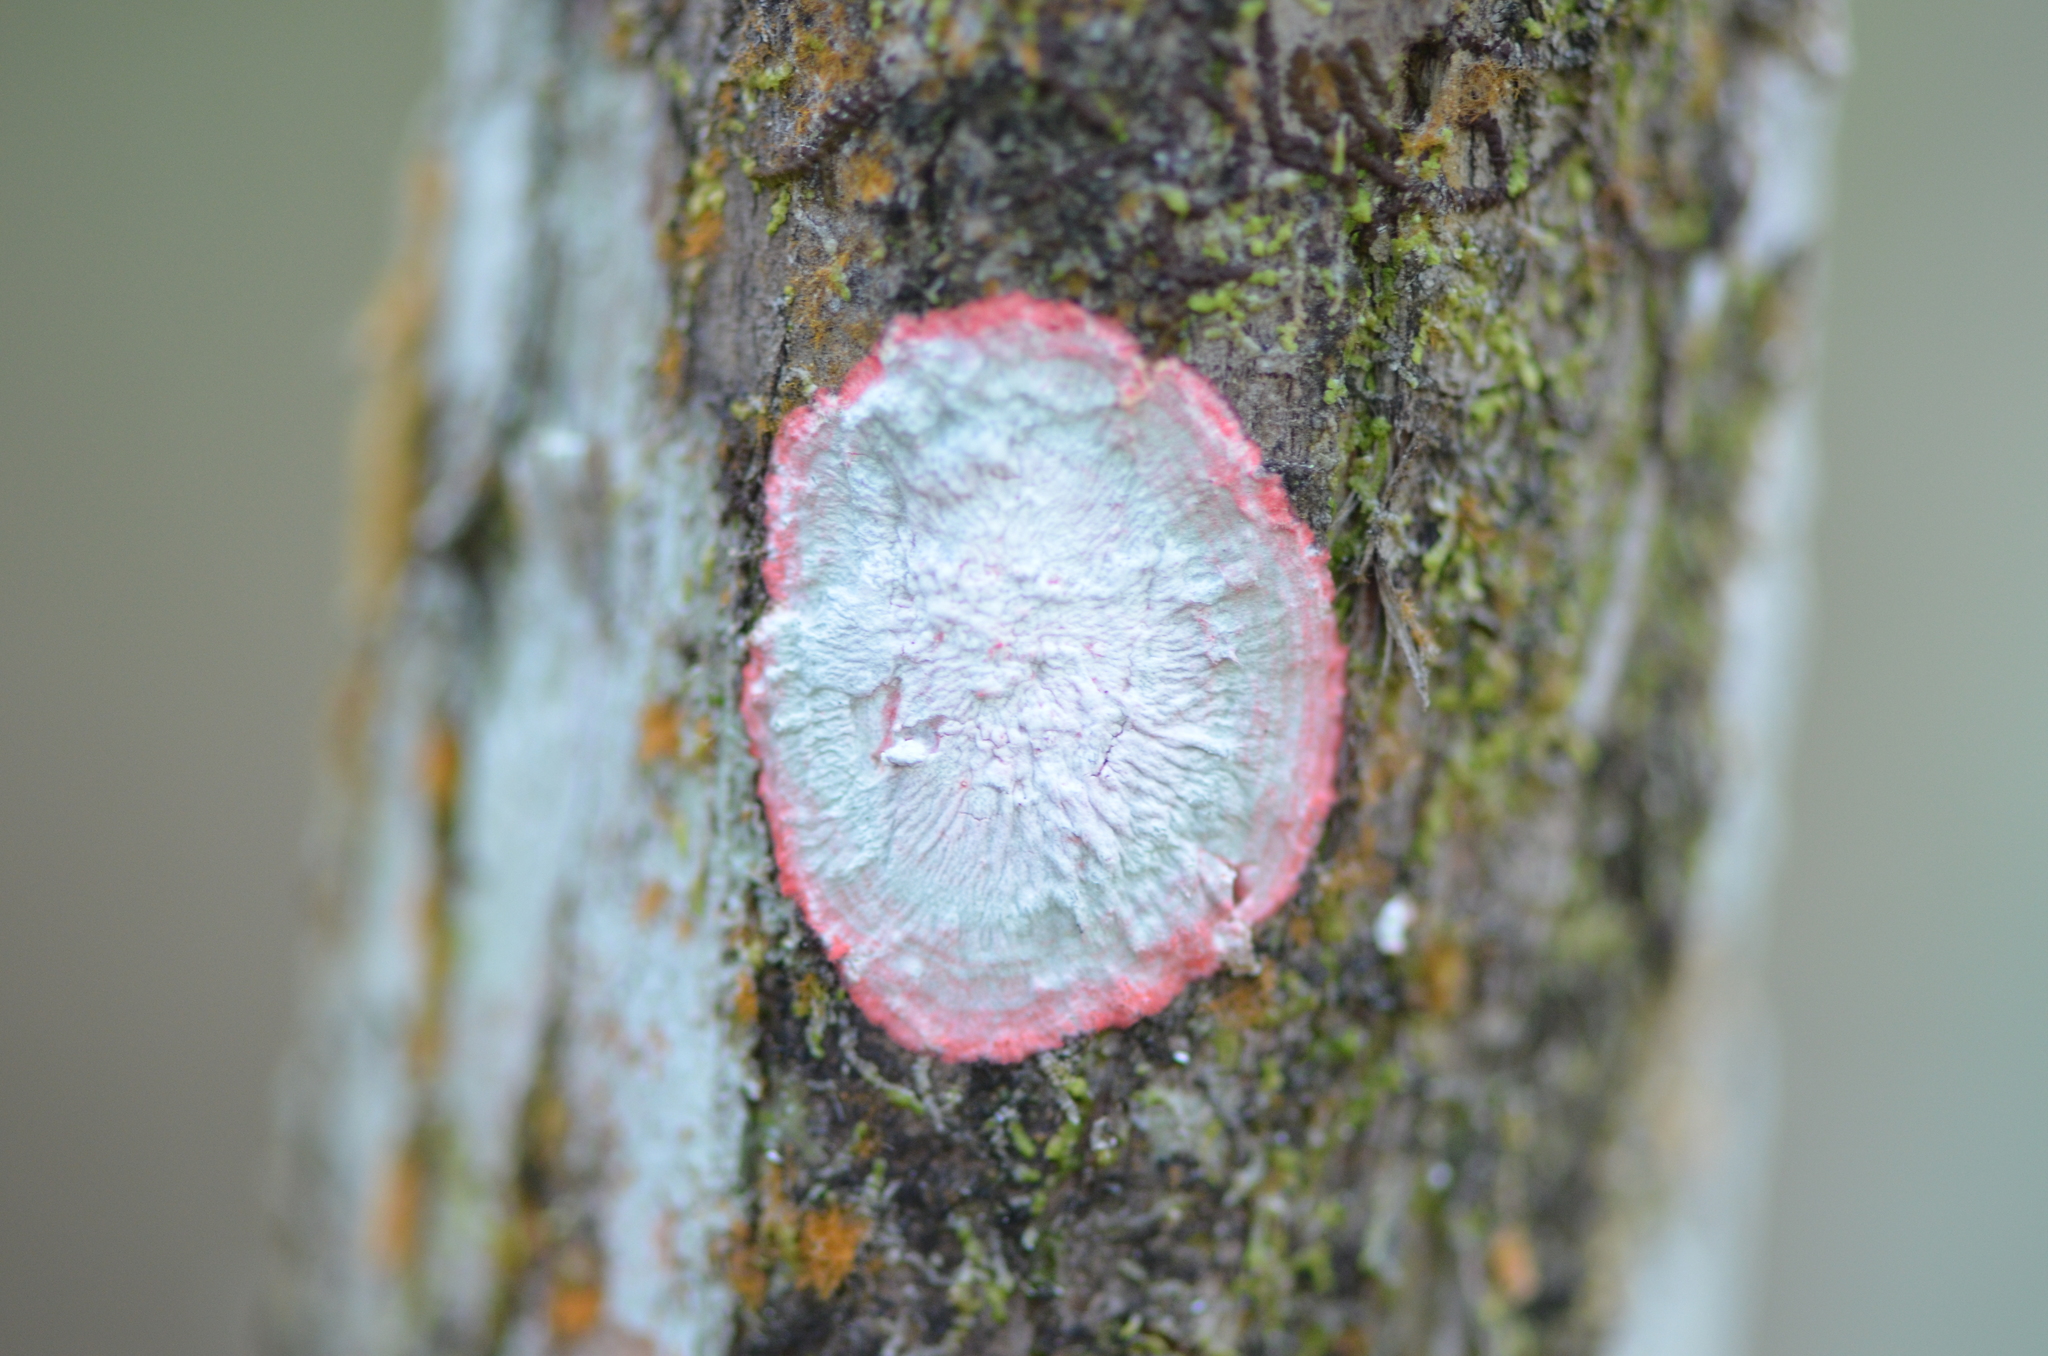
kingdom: Fungi
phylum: Ascomycota
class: Arthoniomycetes
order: Arthoniales
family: Arthoniaceae
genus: Herpothallon
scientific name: Herpothallon rubrocinctum
